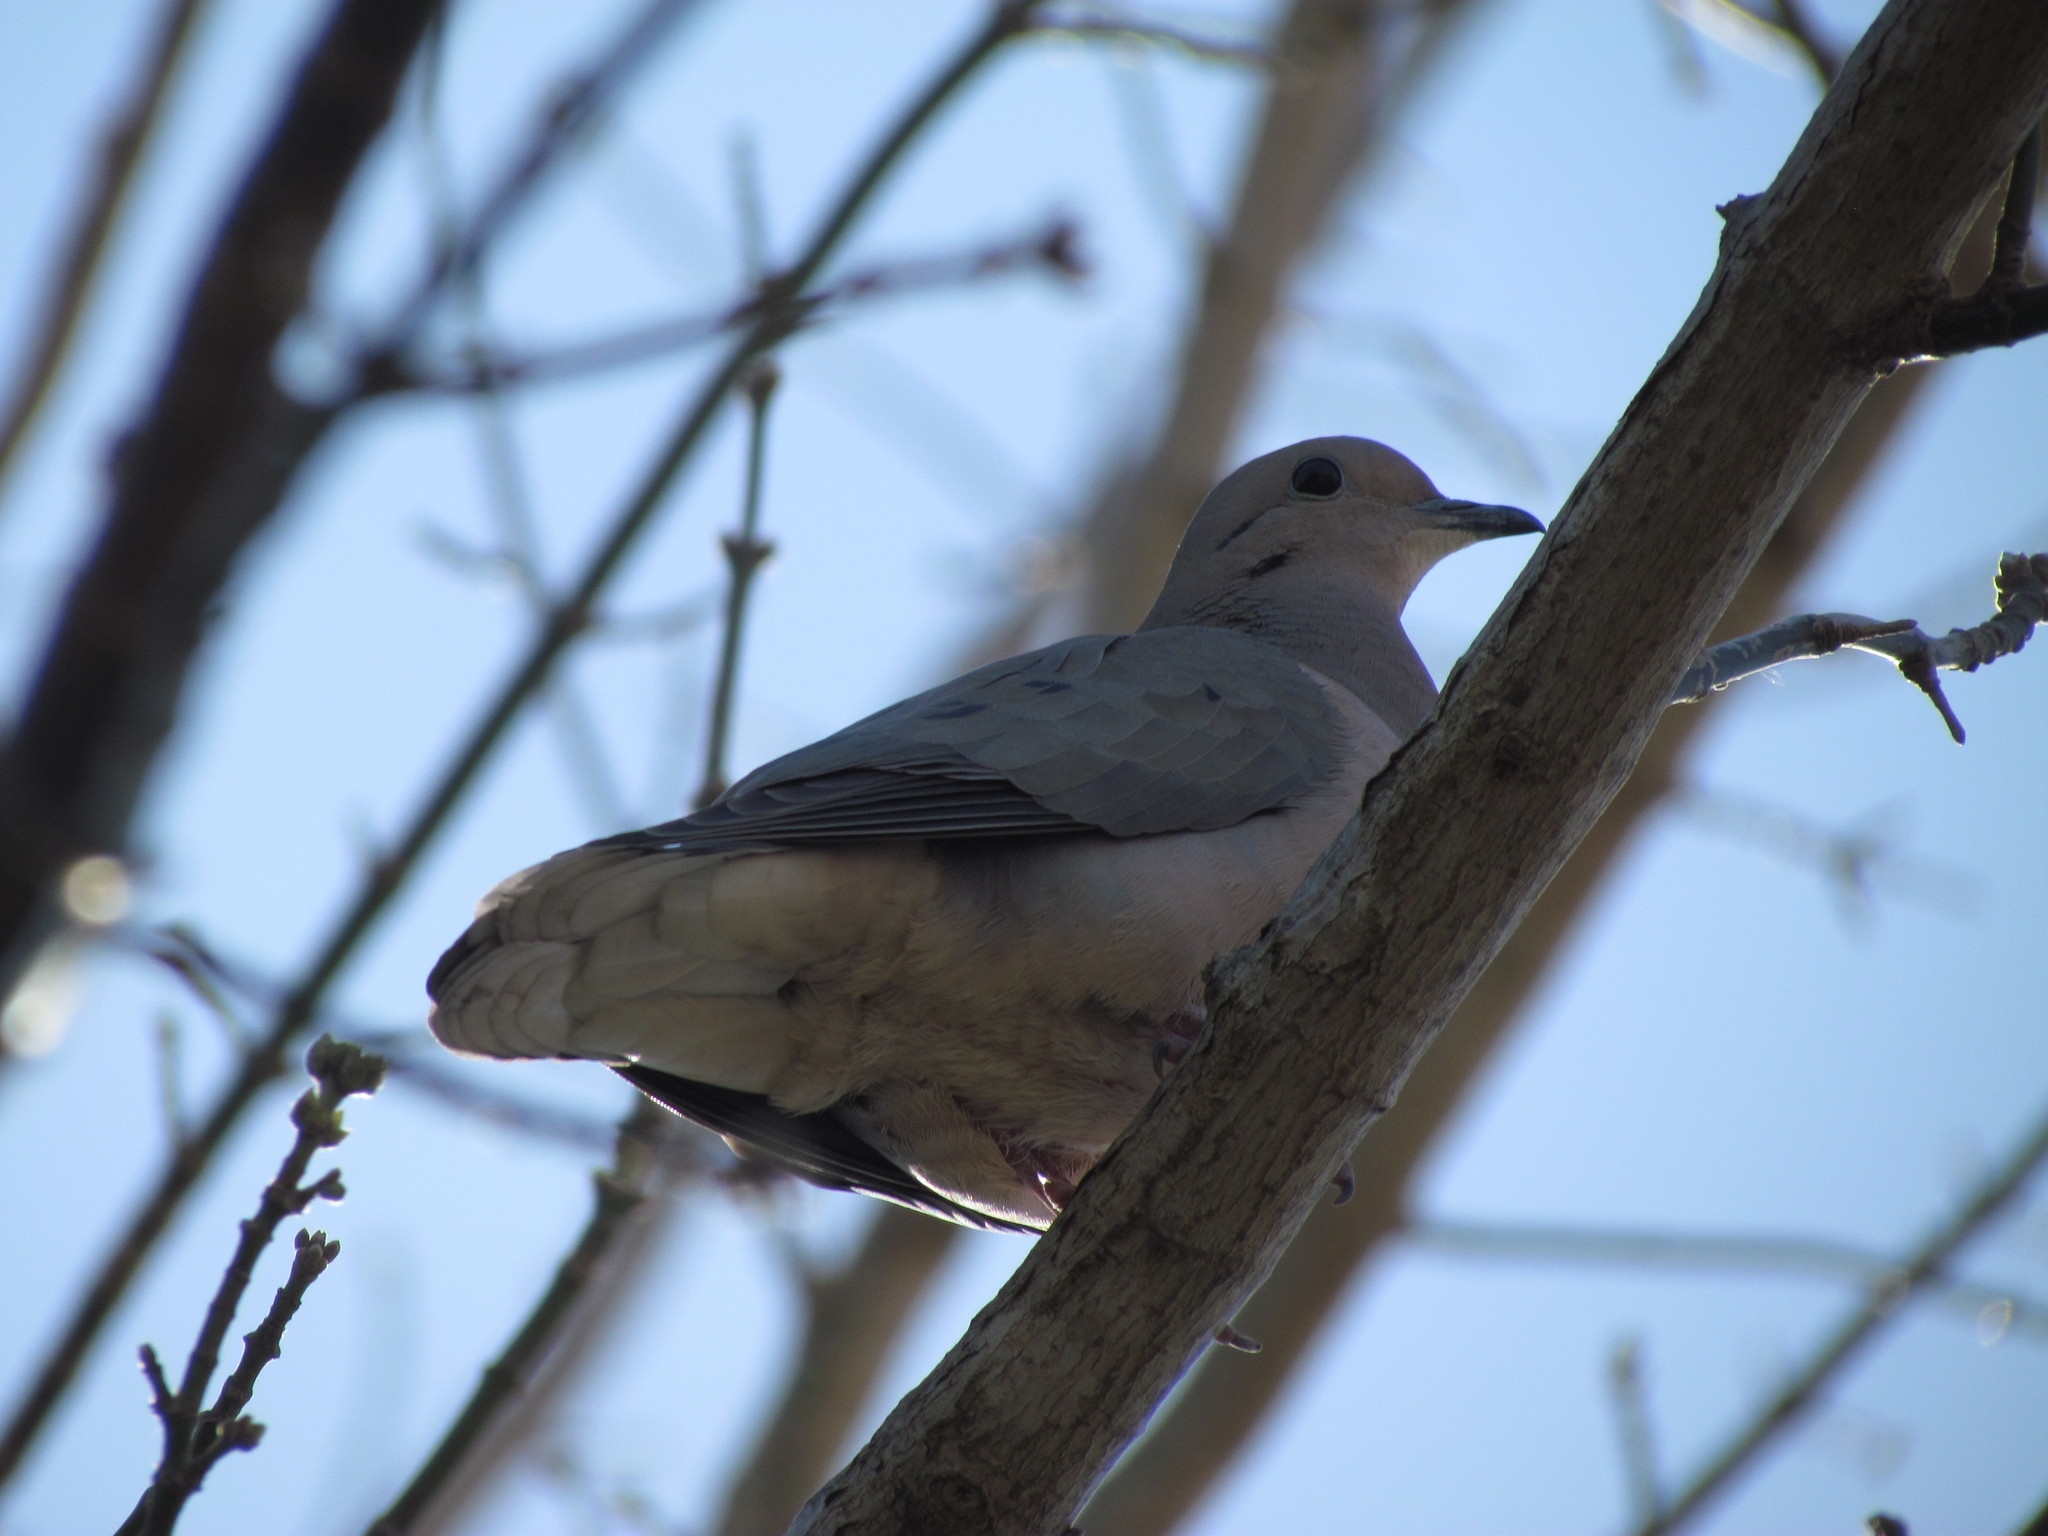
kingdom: Animalia
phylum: Chordata
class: Aves
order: Columbiformes
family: Columbidae
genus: Zenaida
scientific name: Zenaida auriculata
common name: Eared dove
